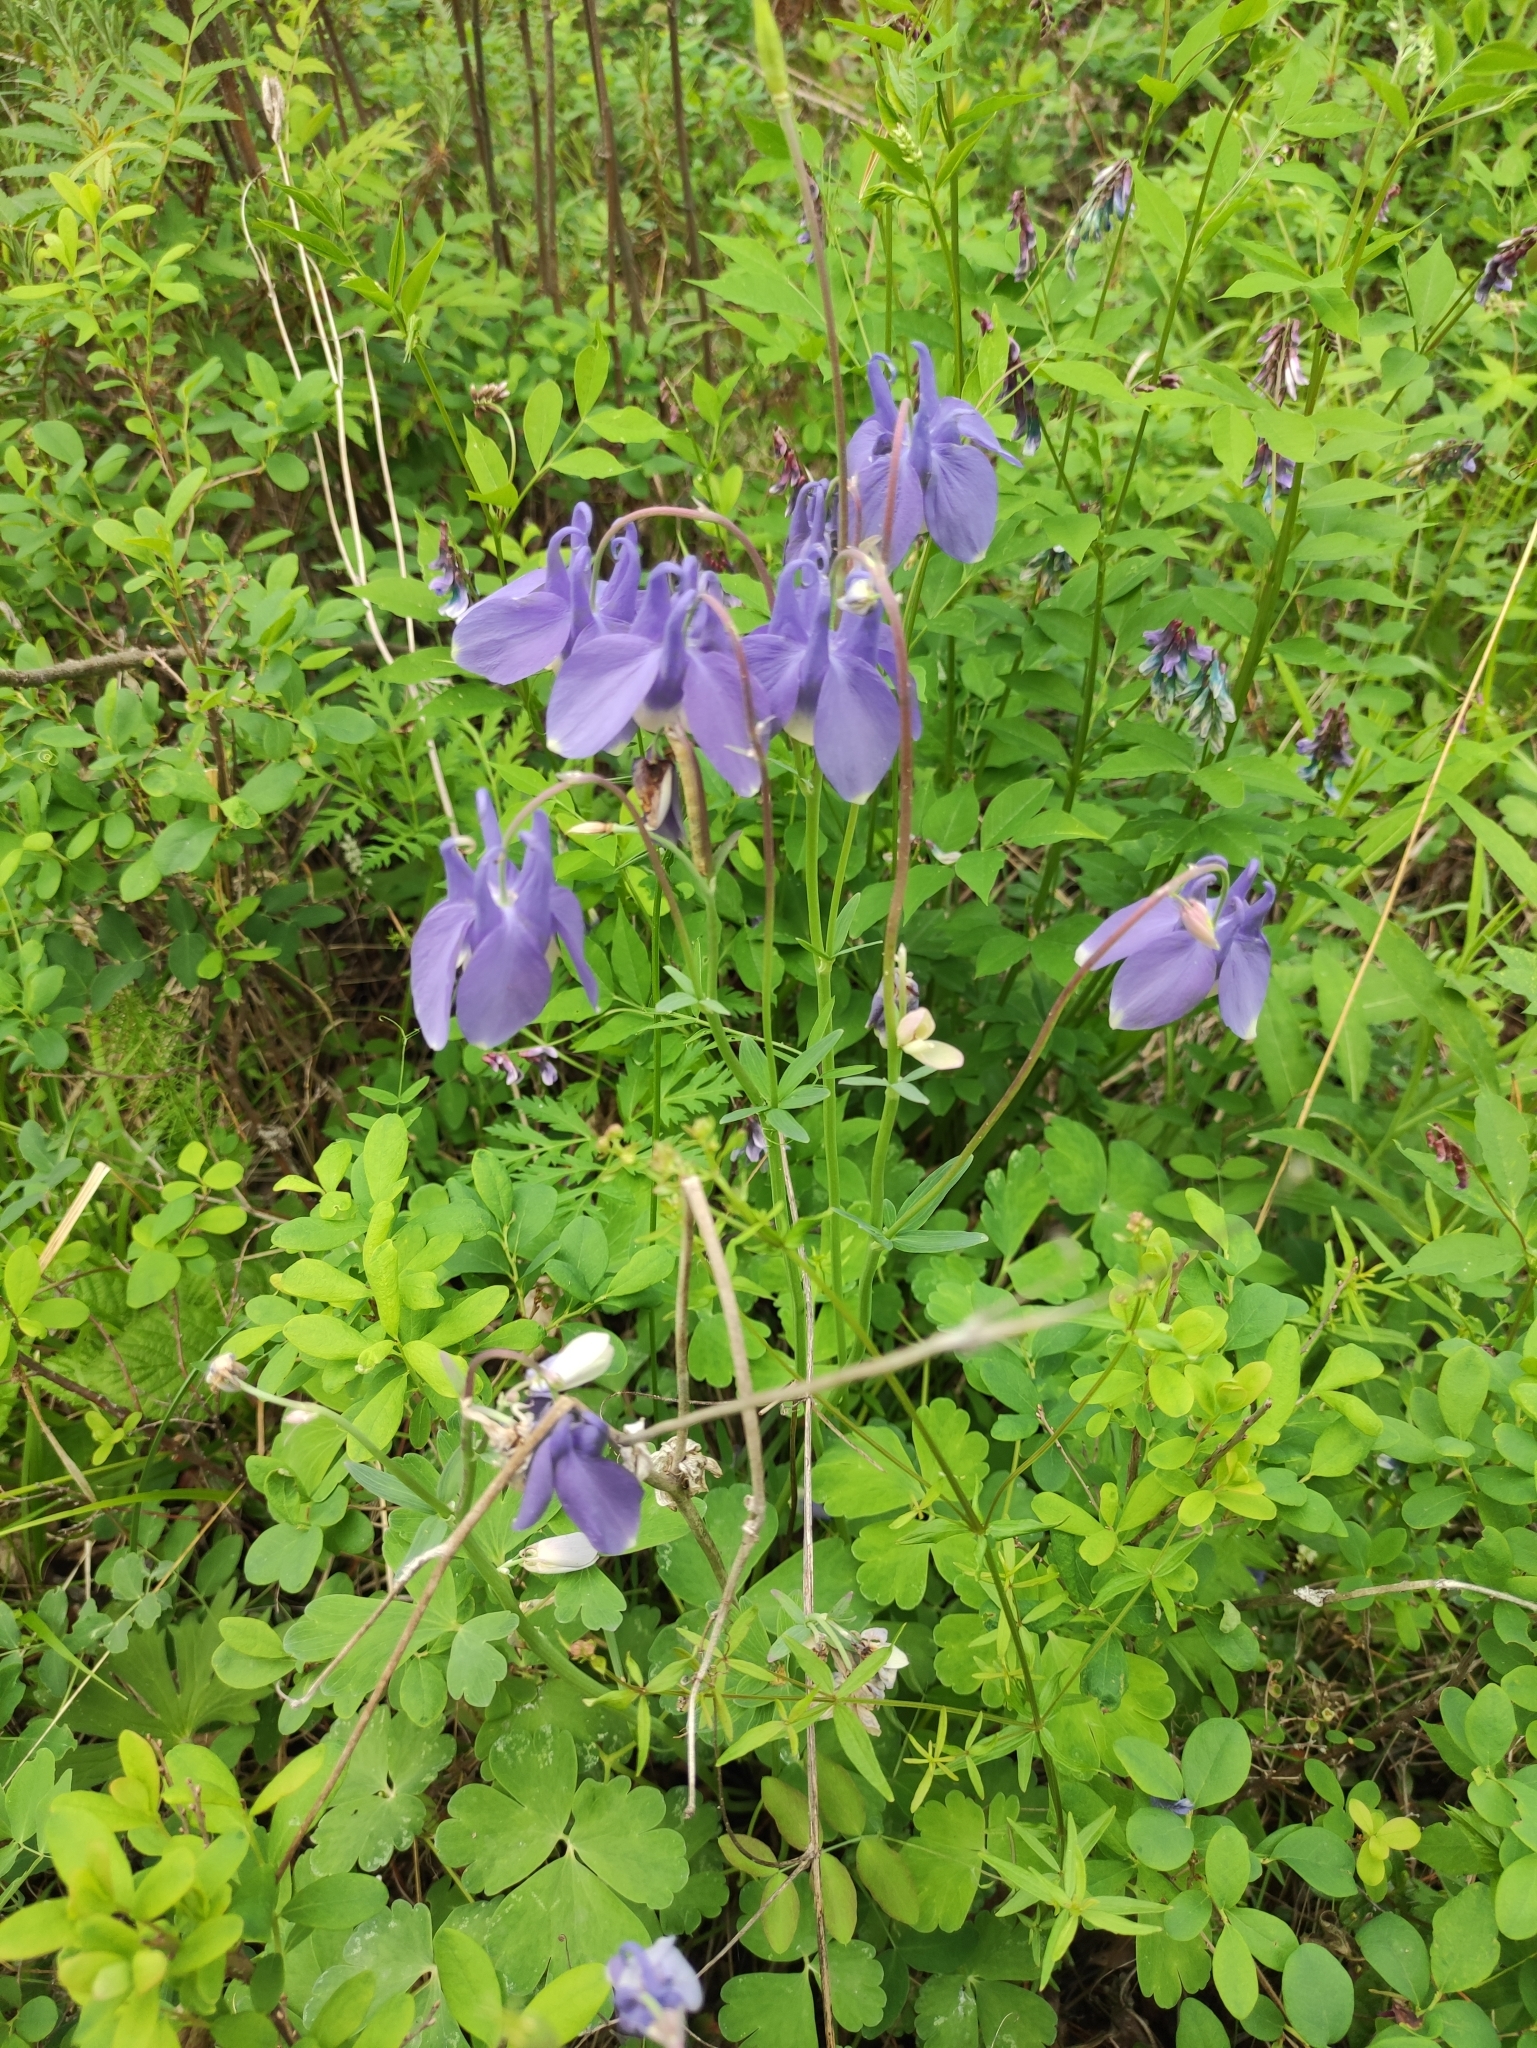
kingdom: Plantae
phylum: Tracheophyta
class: Magnoliopsida
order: Ranunculales
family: Ranunculaceae
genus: Aquilegia
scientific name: Aquilegia sibirica
